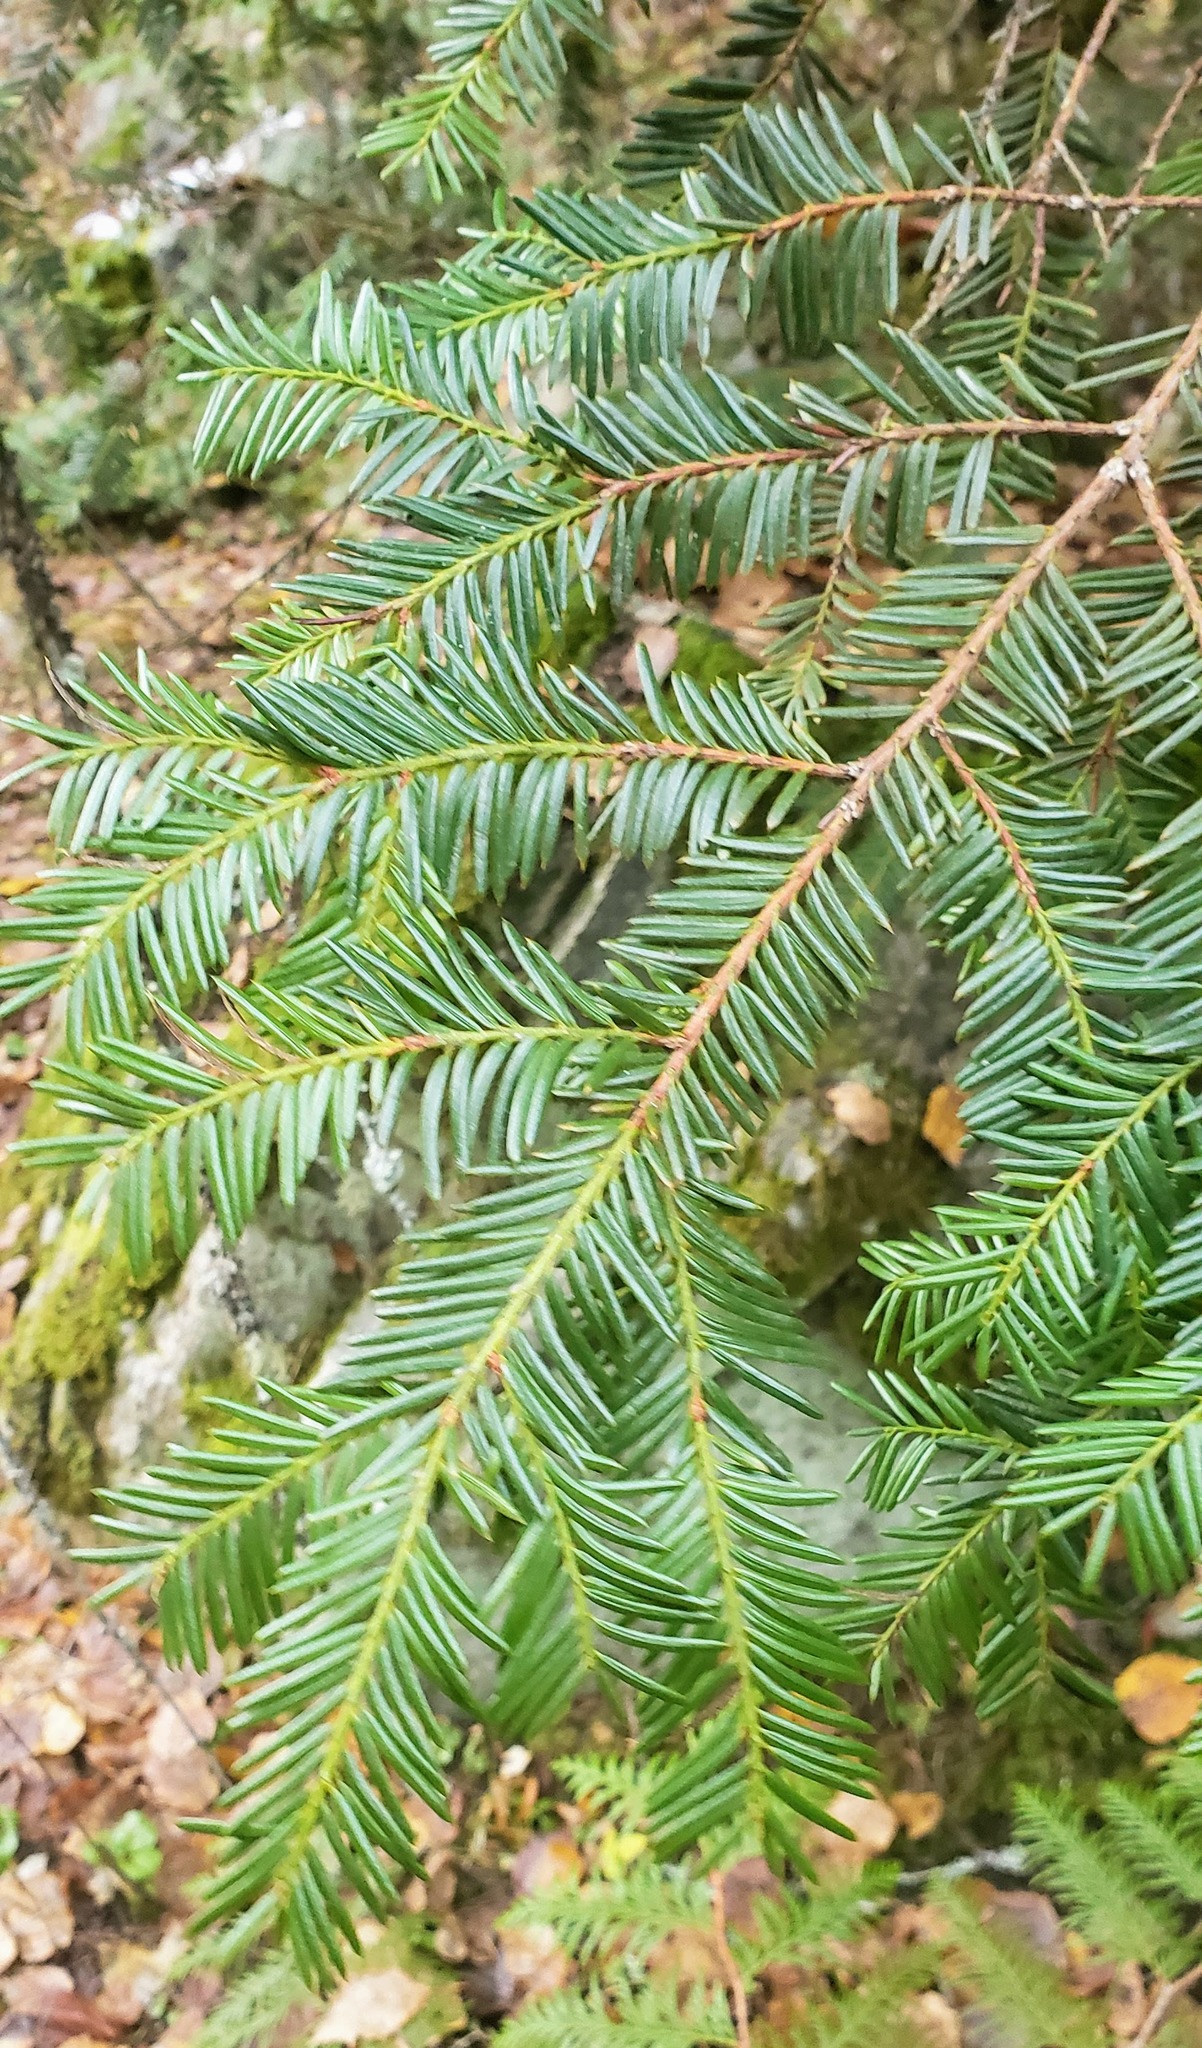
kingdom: Plantae
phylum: Tracheophyta
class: Pinopsida
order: Pinales
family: Taxaceae
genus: Taxus
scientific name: Taxus brevifolia
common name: Pacific yew
